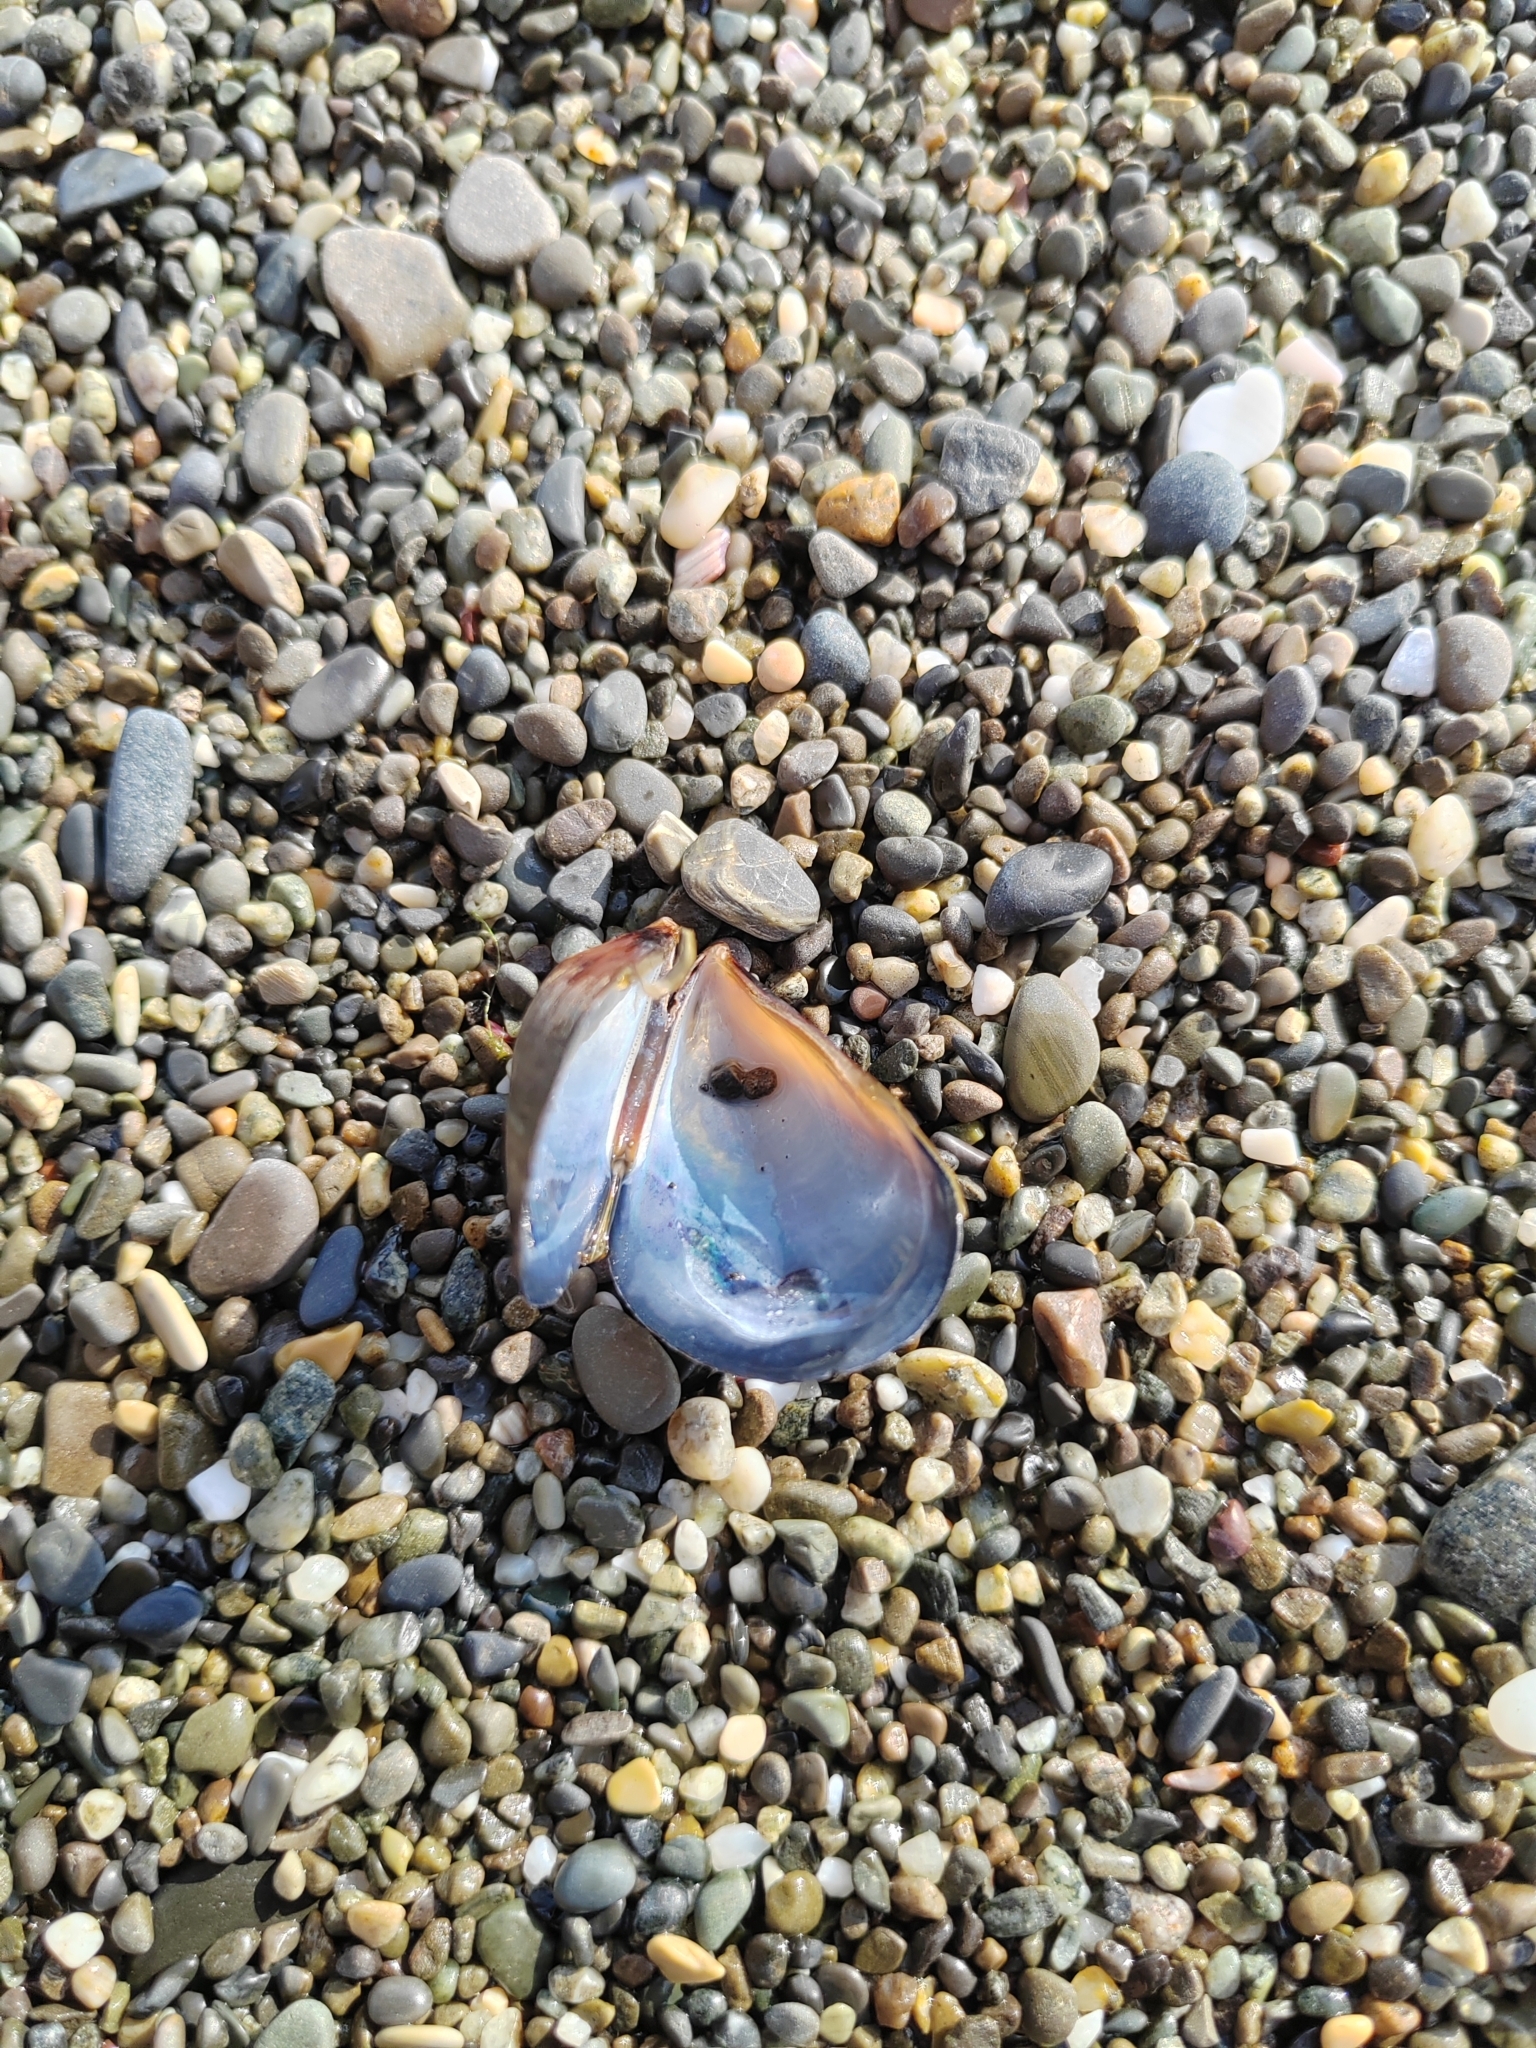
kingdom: Animalia
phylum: Mollusca
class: Bivalvia
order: Mytilida
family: Mytilidae
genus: Mytilus
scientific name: Mytilus galloprovincialis
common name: Mediterranean mussel
